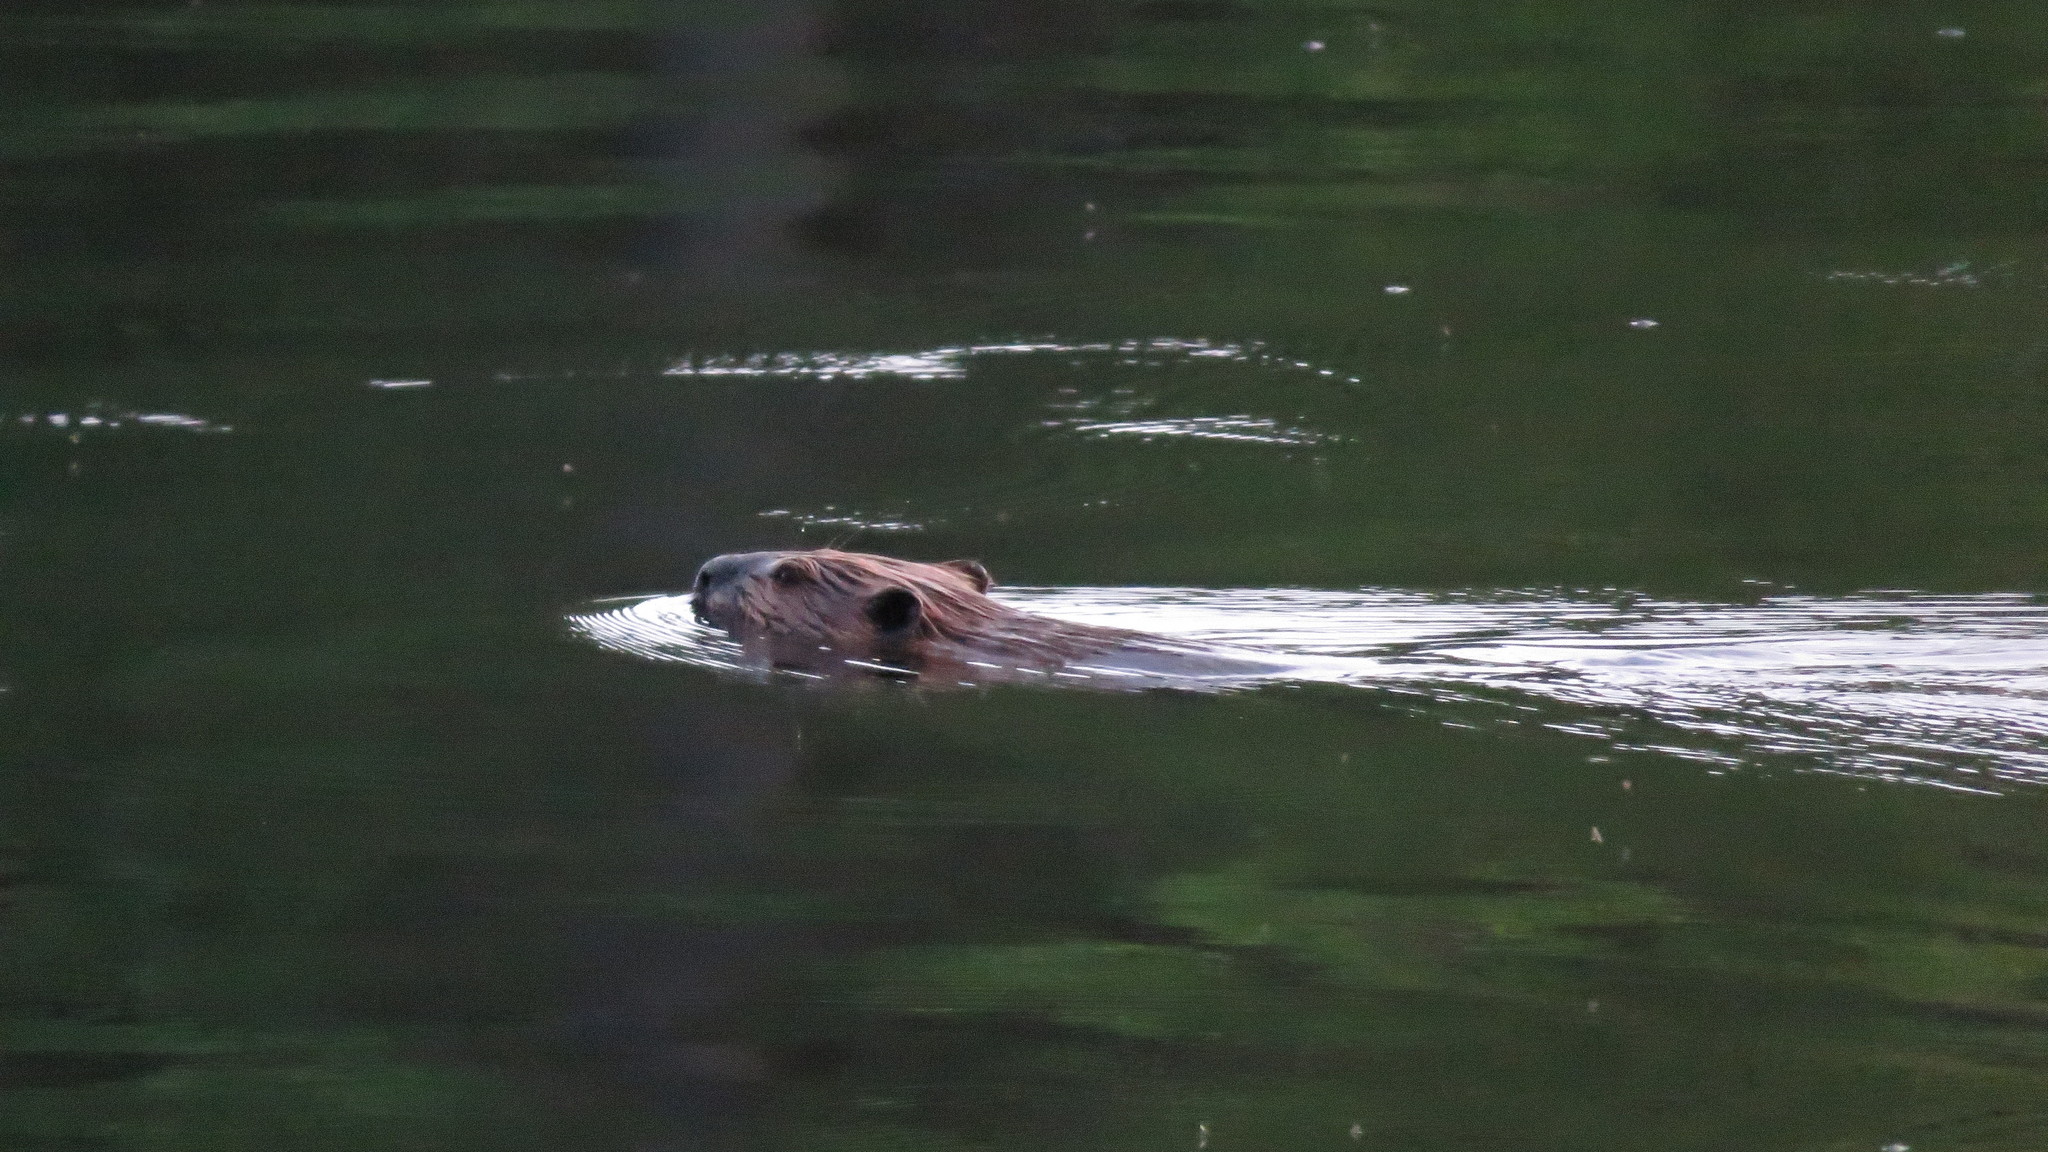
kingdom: Animalia
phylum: Chordata
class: Mammalia
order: Rodentia
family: Castoridae
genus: Castor
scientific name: Castor canadensis
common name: American beaver
